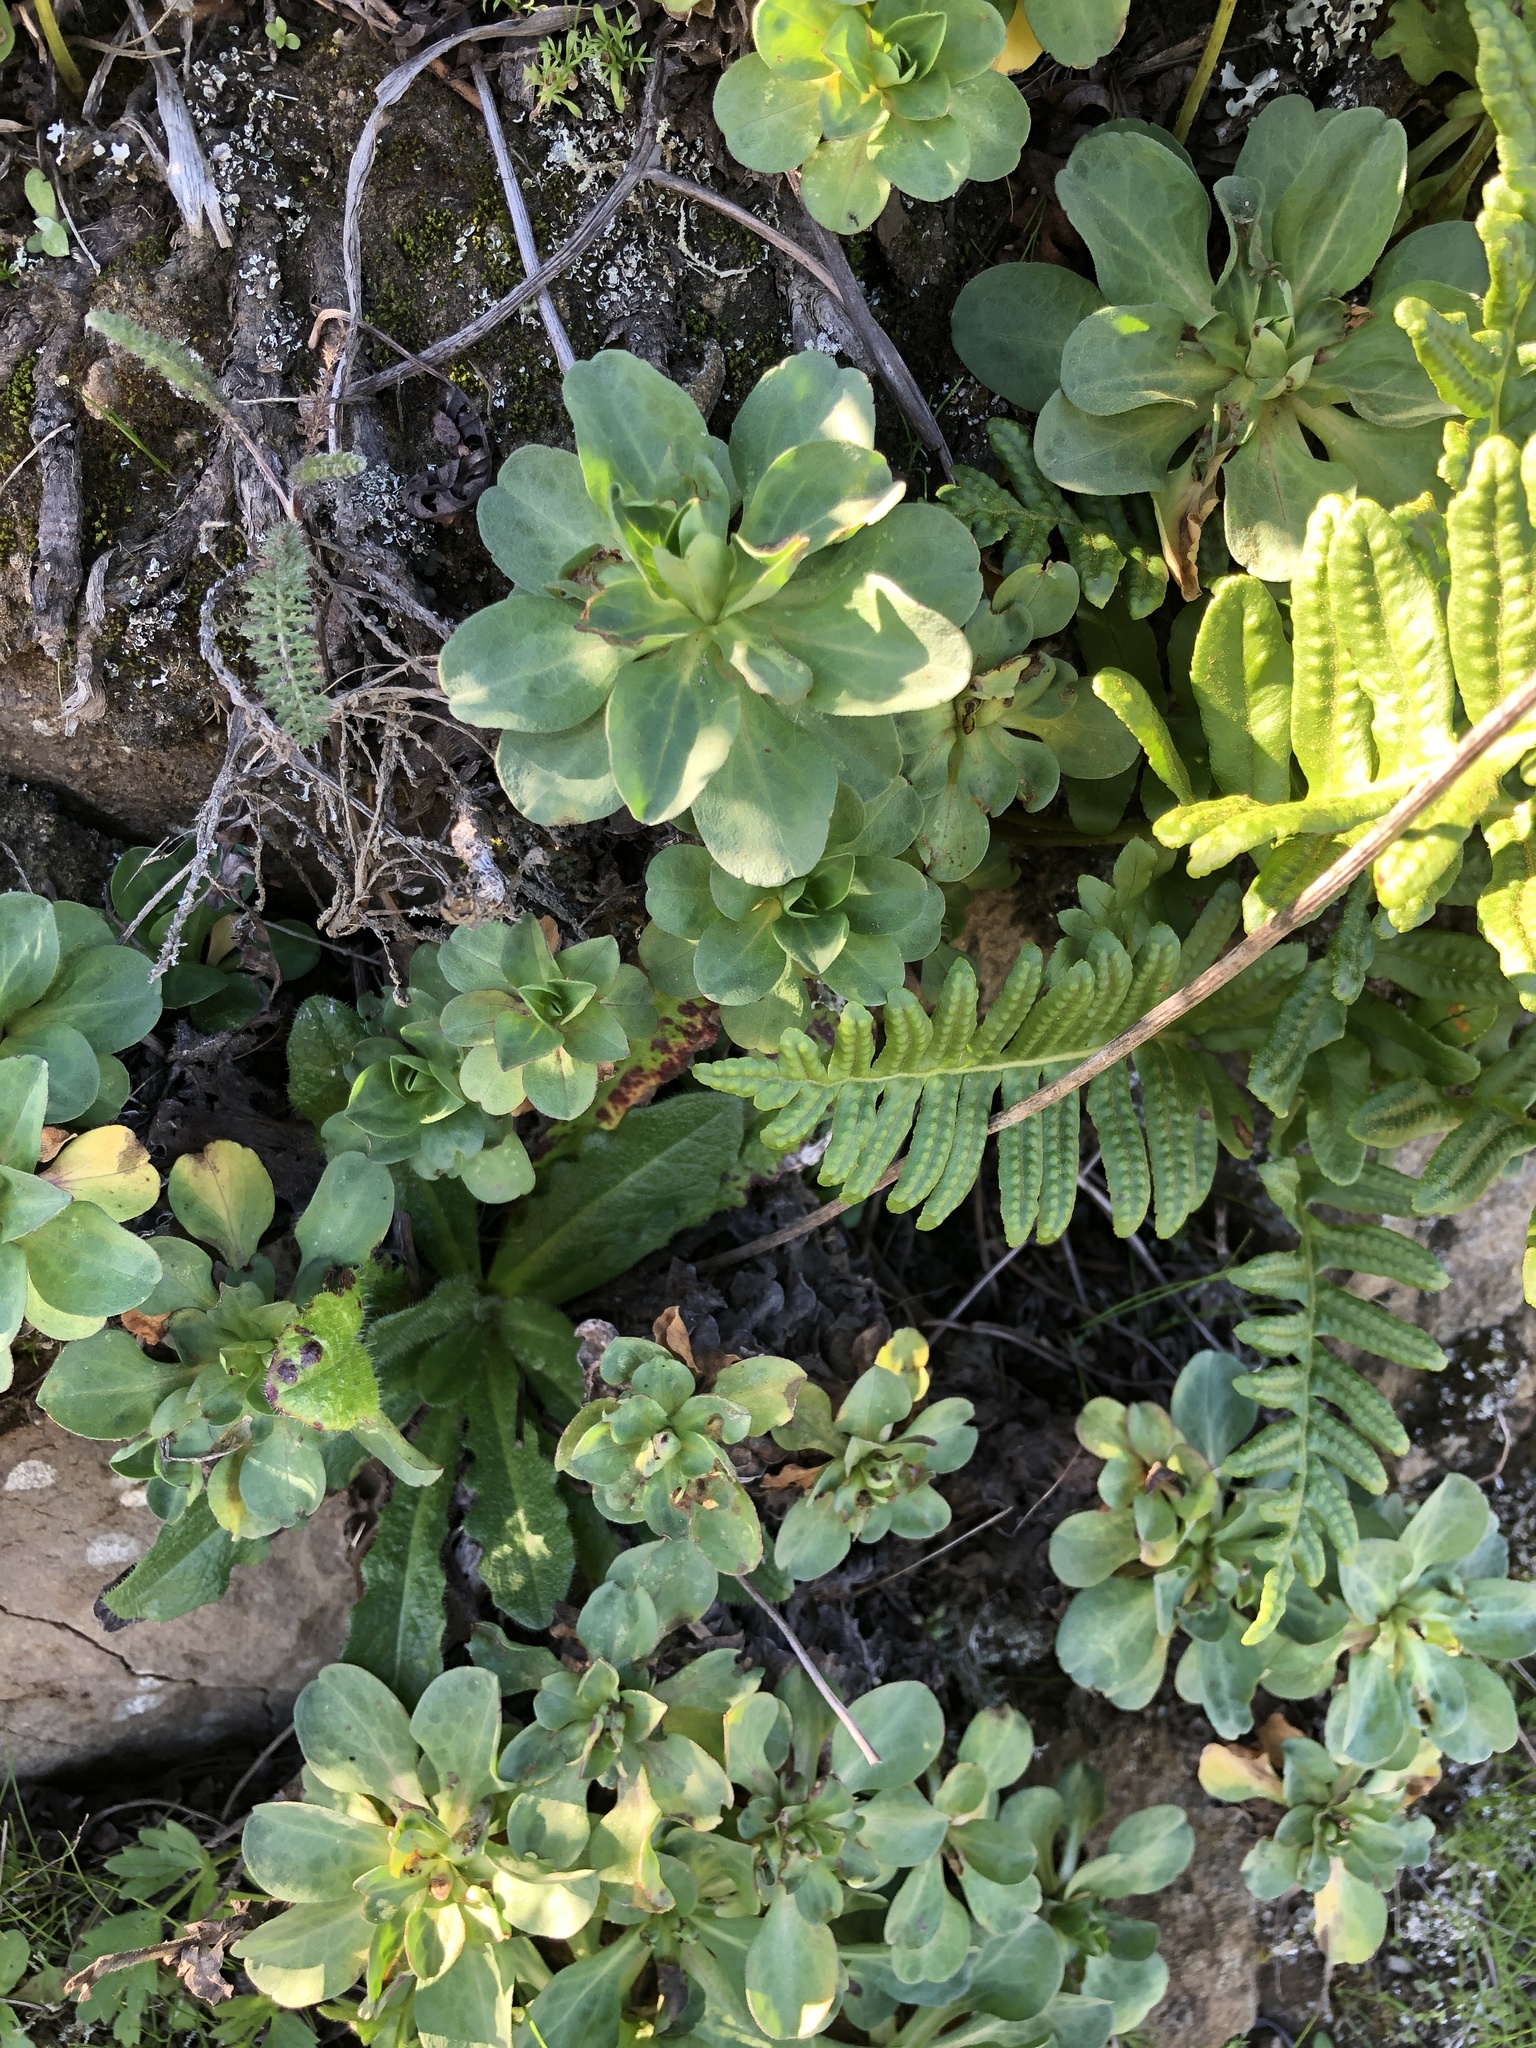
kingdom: Plantae
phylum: Tracheophyta
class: Magnoliopsida
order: Asterales
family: Asteraceae
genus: Erigeron
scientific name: Erigeron glaucus
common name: Seaside daisy
